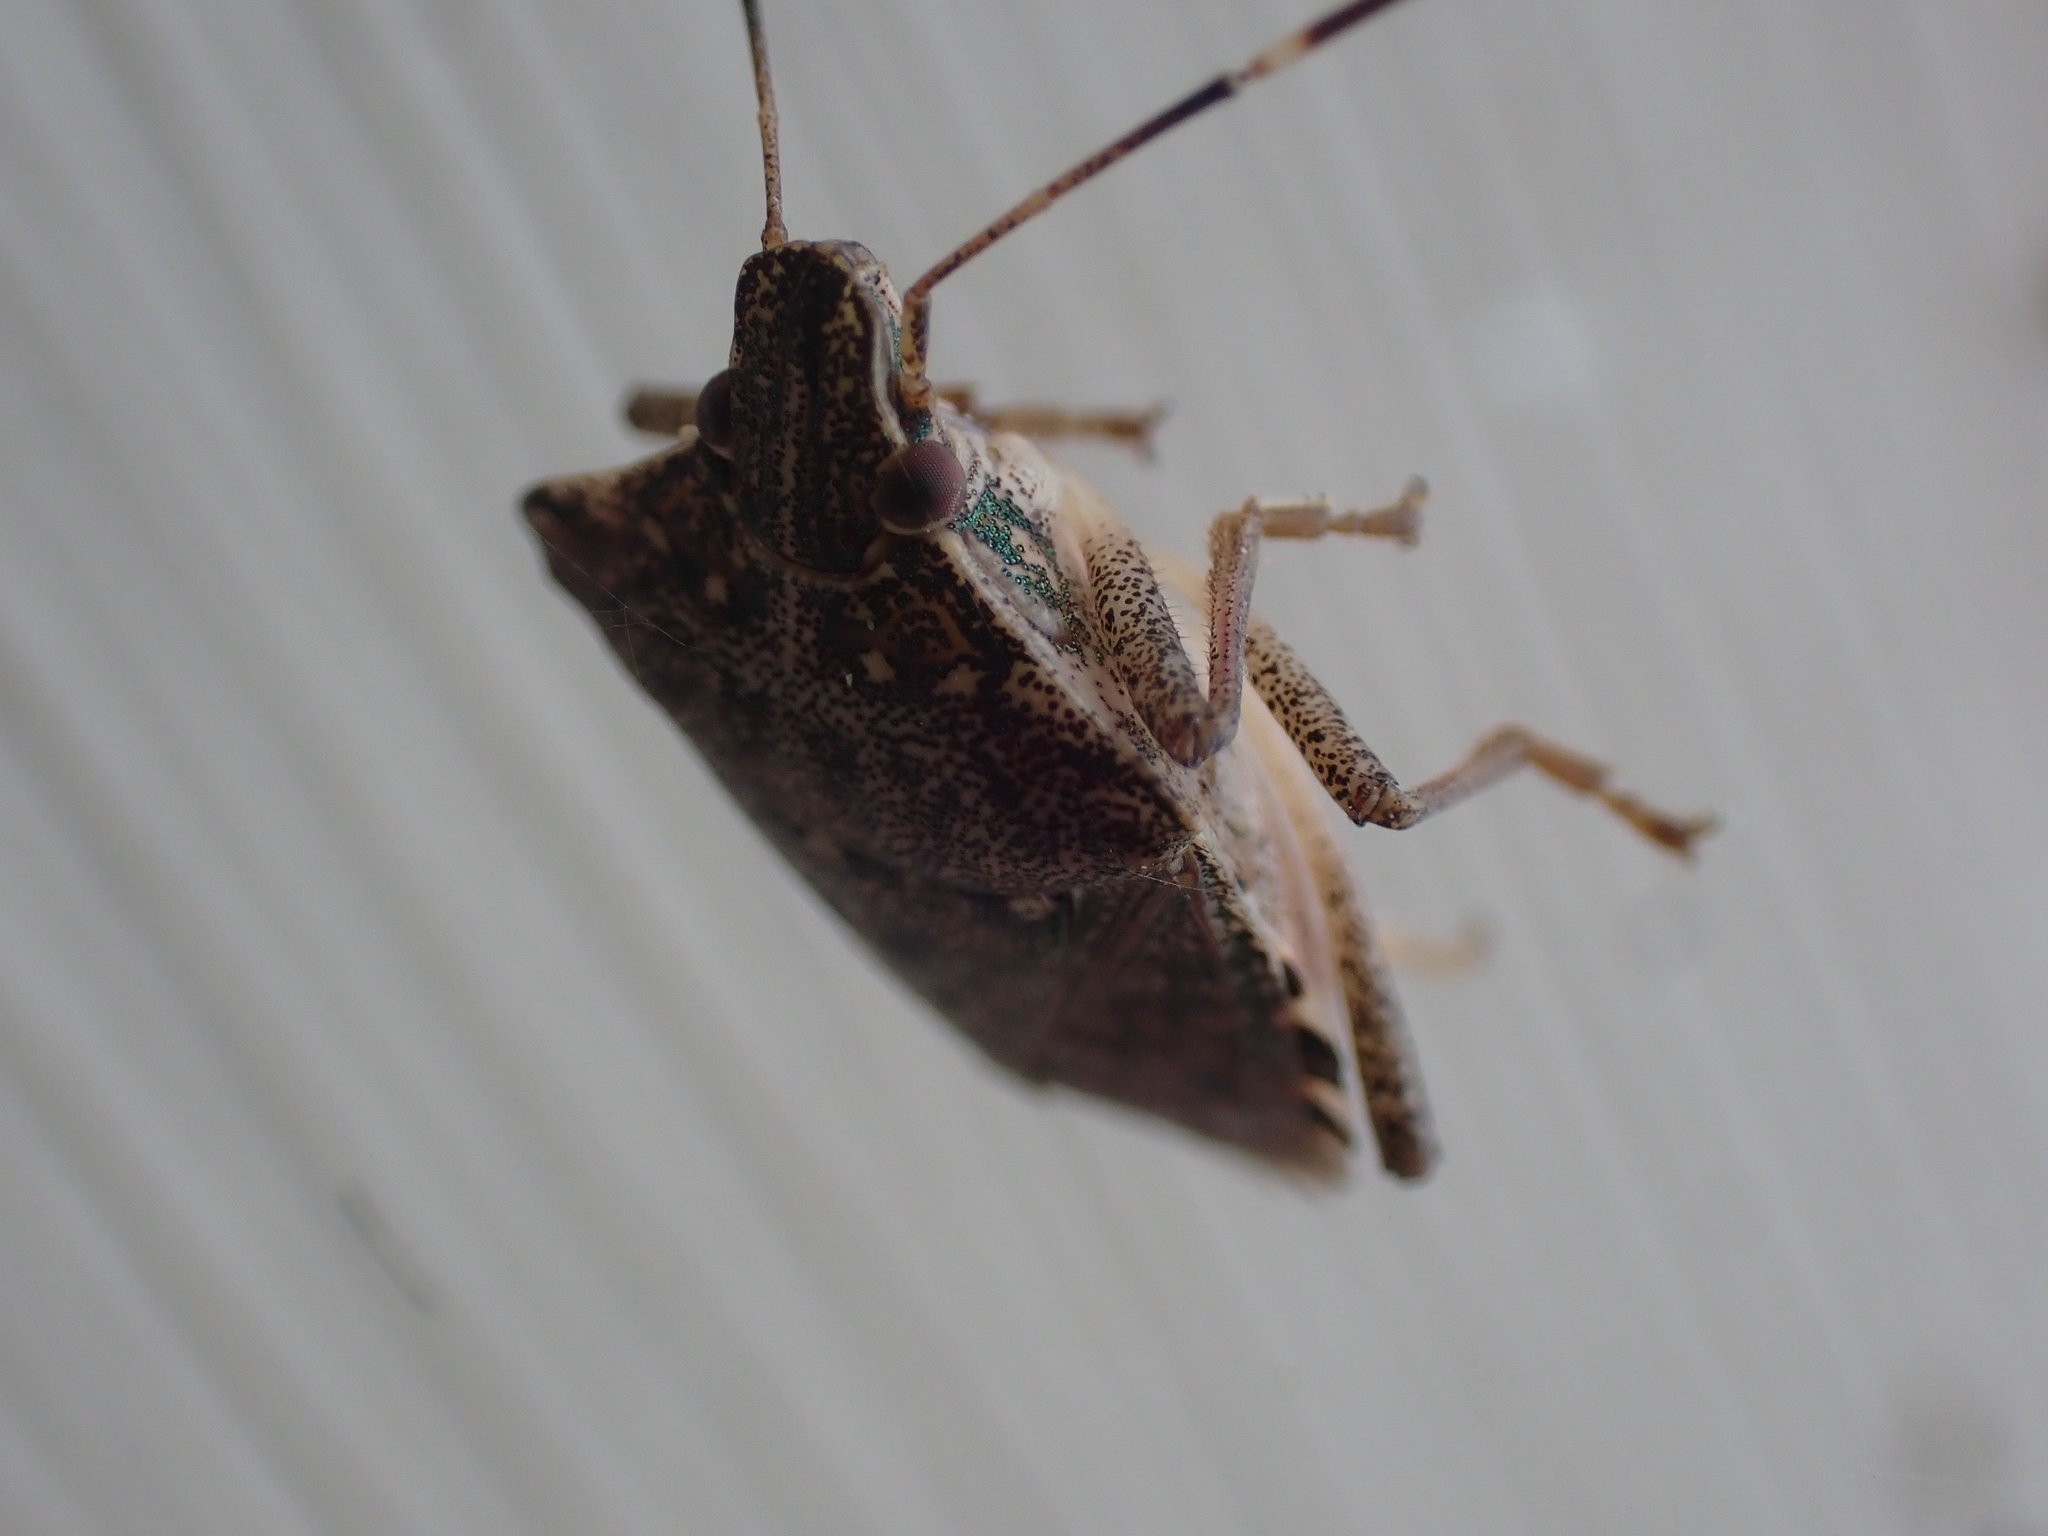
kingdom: Animalia
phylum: Arthropoda
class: Insecta
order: Hemiptera
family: Pentatomidae
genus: Halyomorpha
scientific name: Halyomorpha halys
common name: Brown marmorated stink bug
